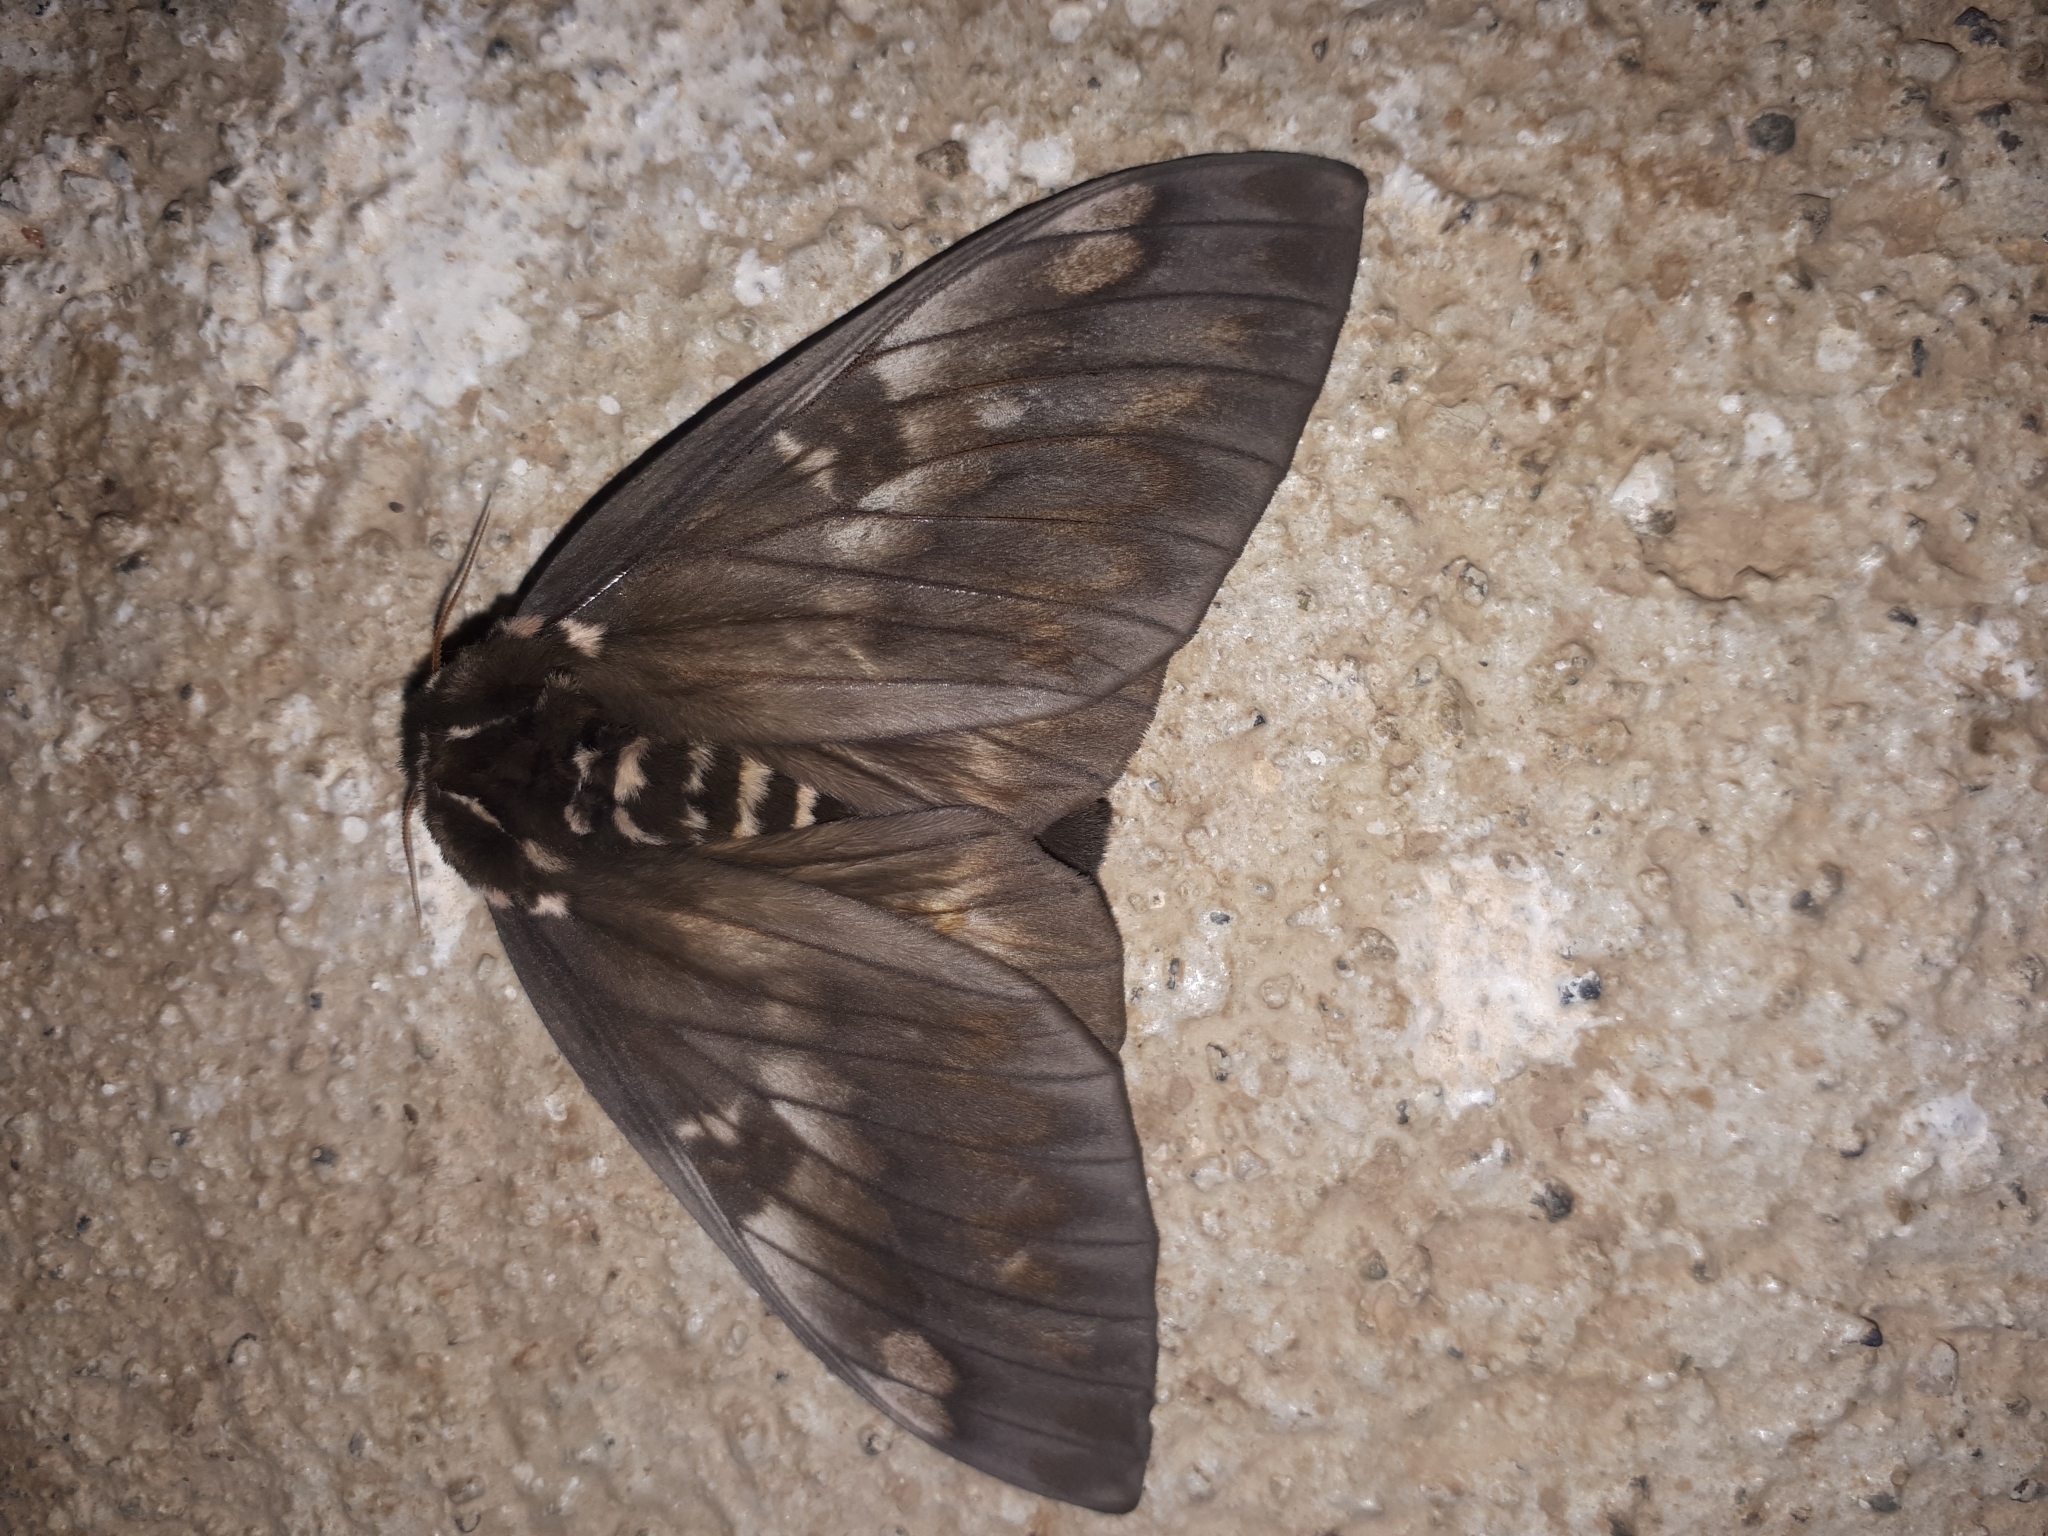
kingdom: Animalia
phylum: Arthropoda
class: Insecta
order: Lepidoptera
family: Saturniidae
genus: Citheronia
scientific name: Citheronia bellavista
